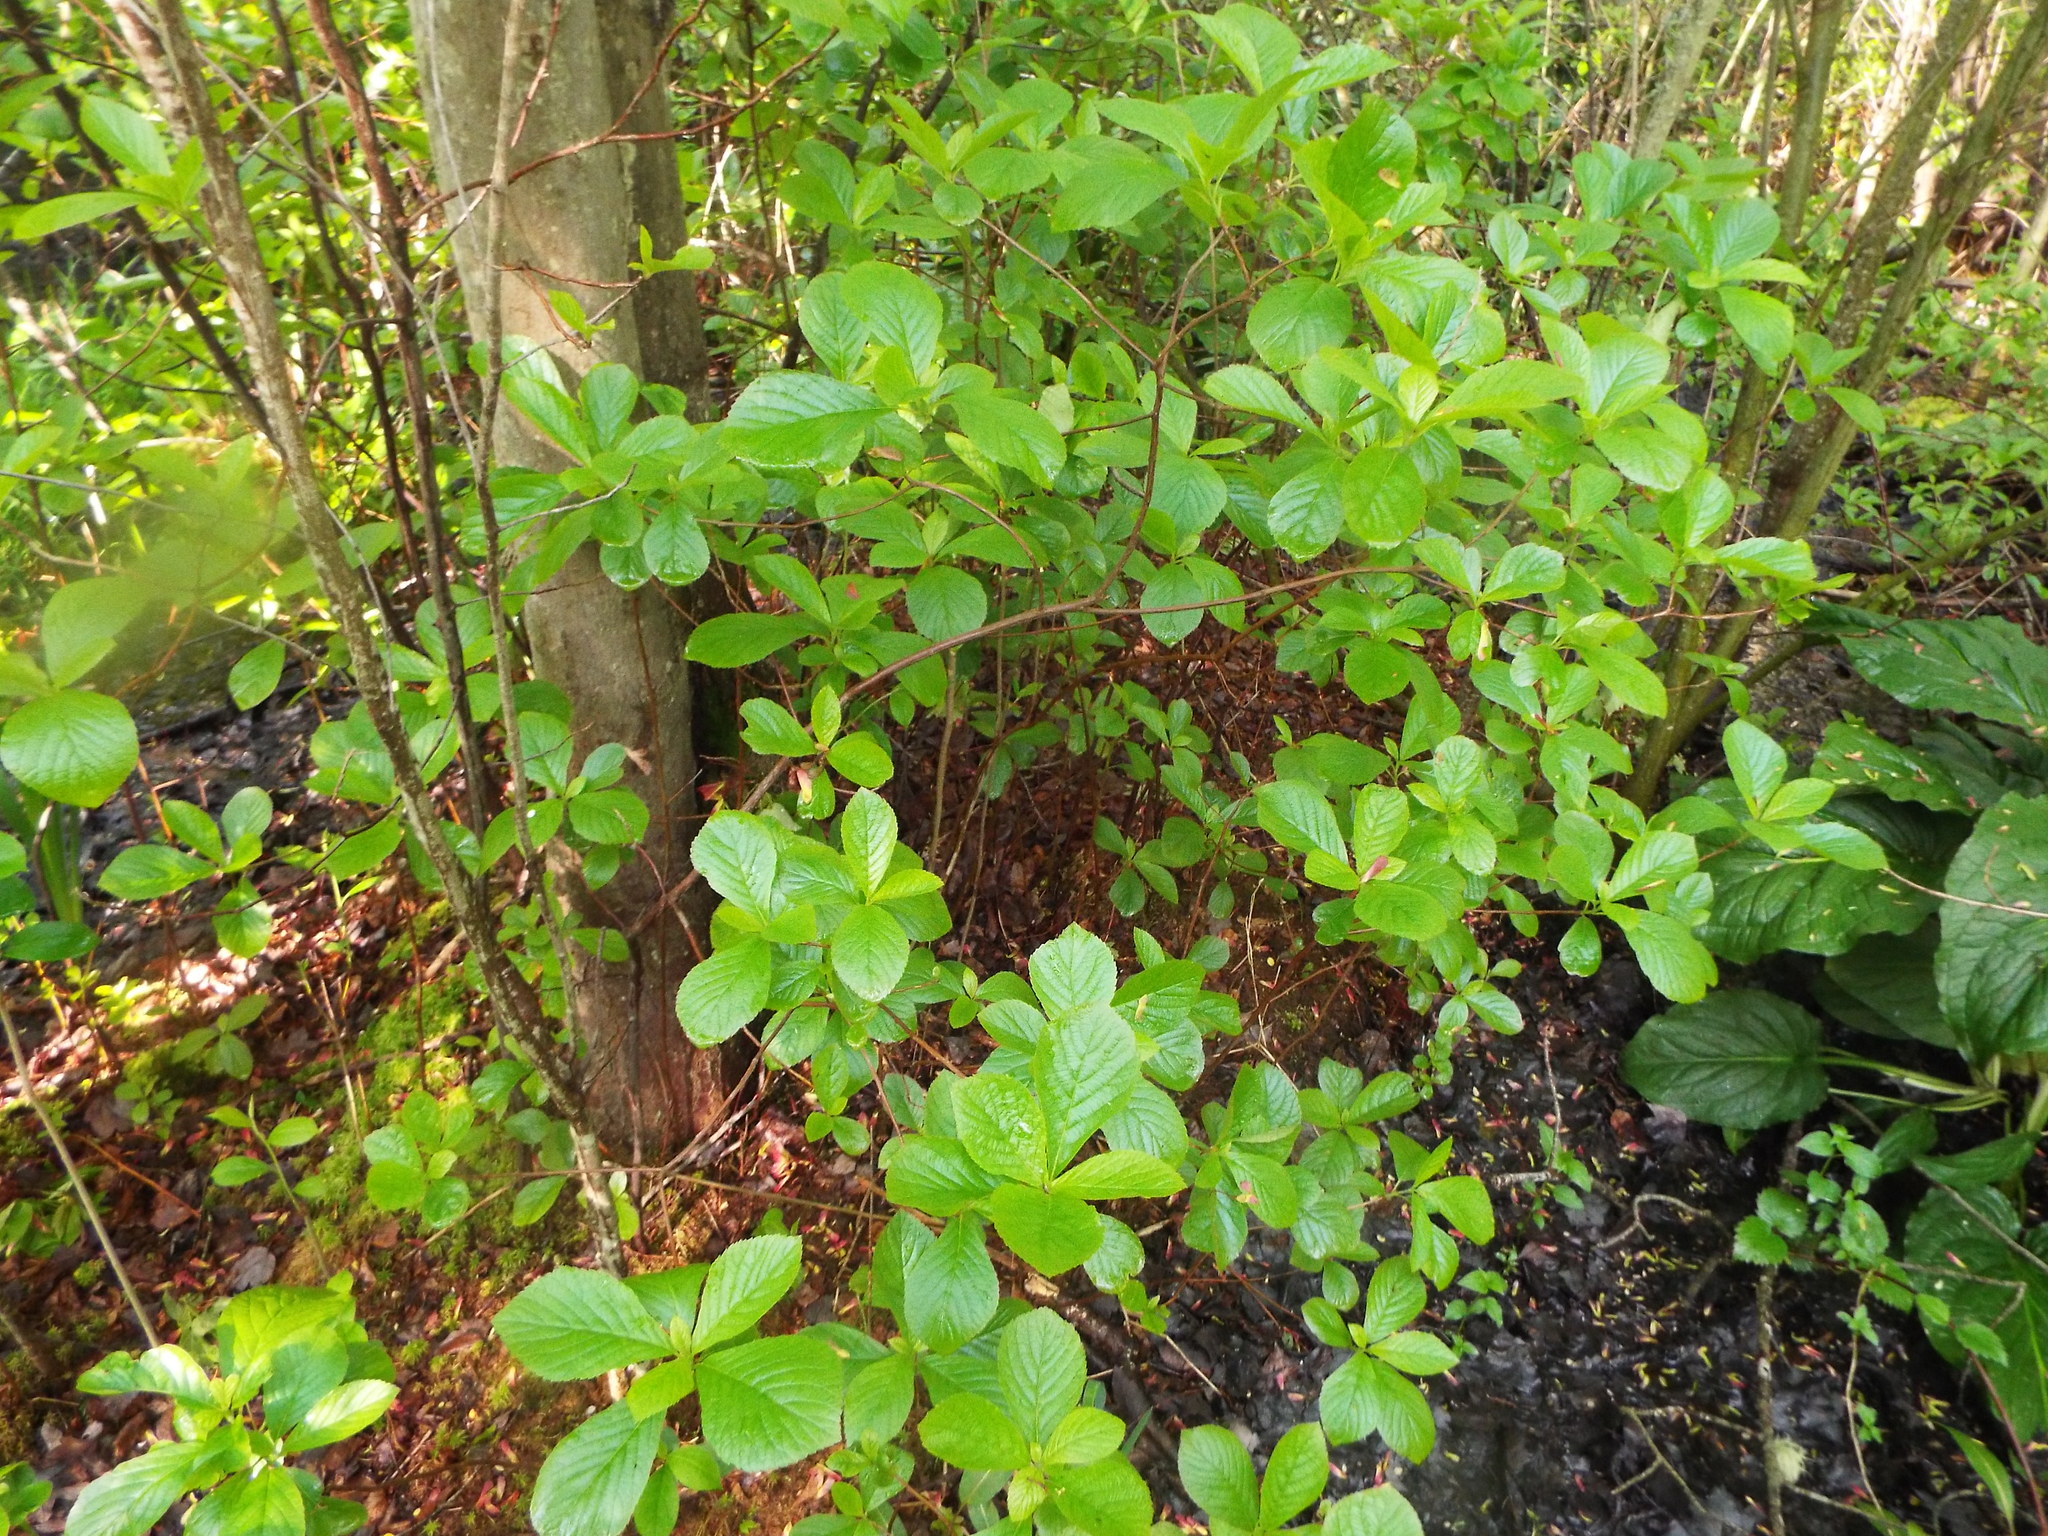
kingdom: Plantae
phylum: Tracheophyta
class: Magnoliopsida
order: Ericales
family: Clethraceae
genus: Clethra
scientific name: Clethra alnifolia
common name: Sweet pepperbush
